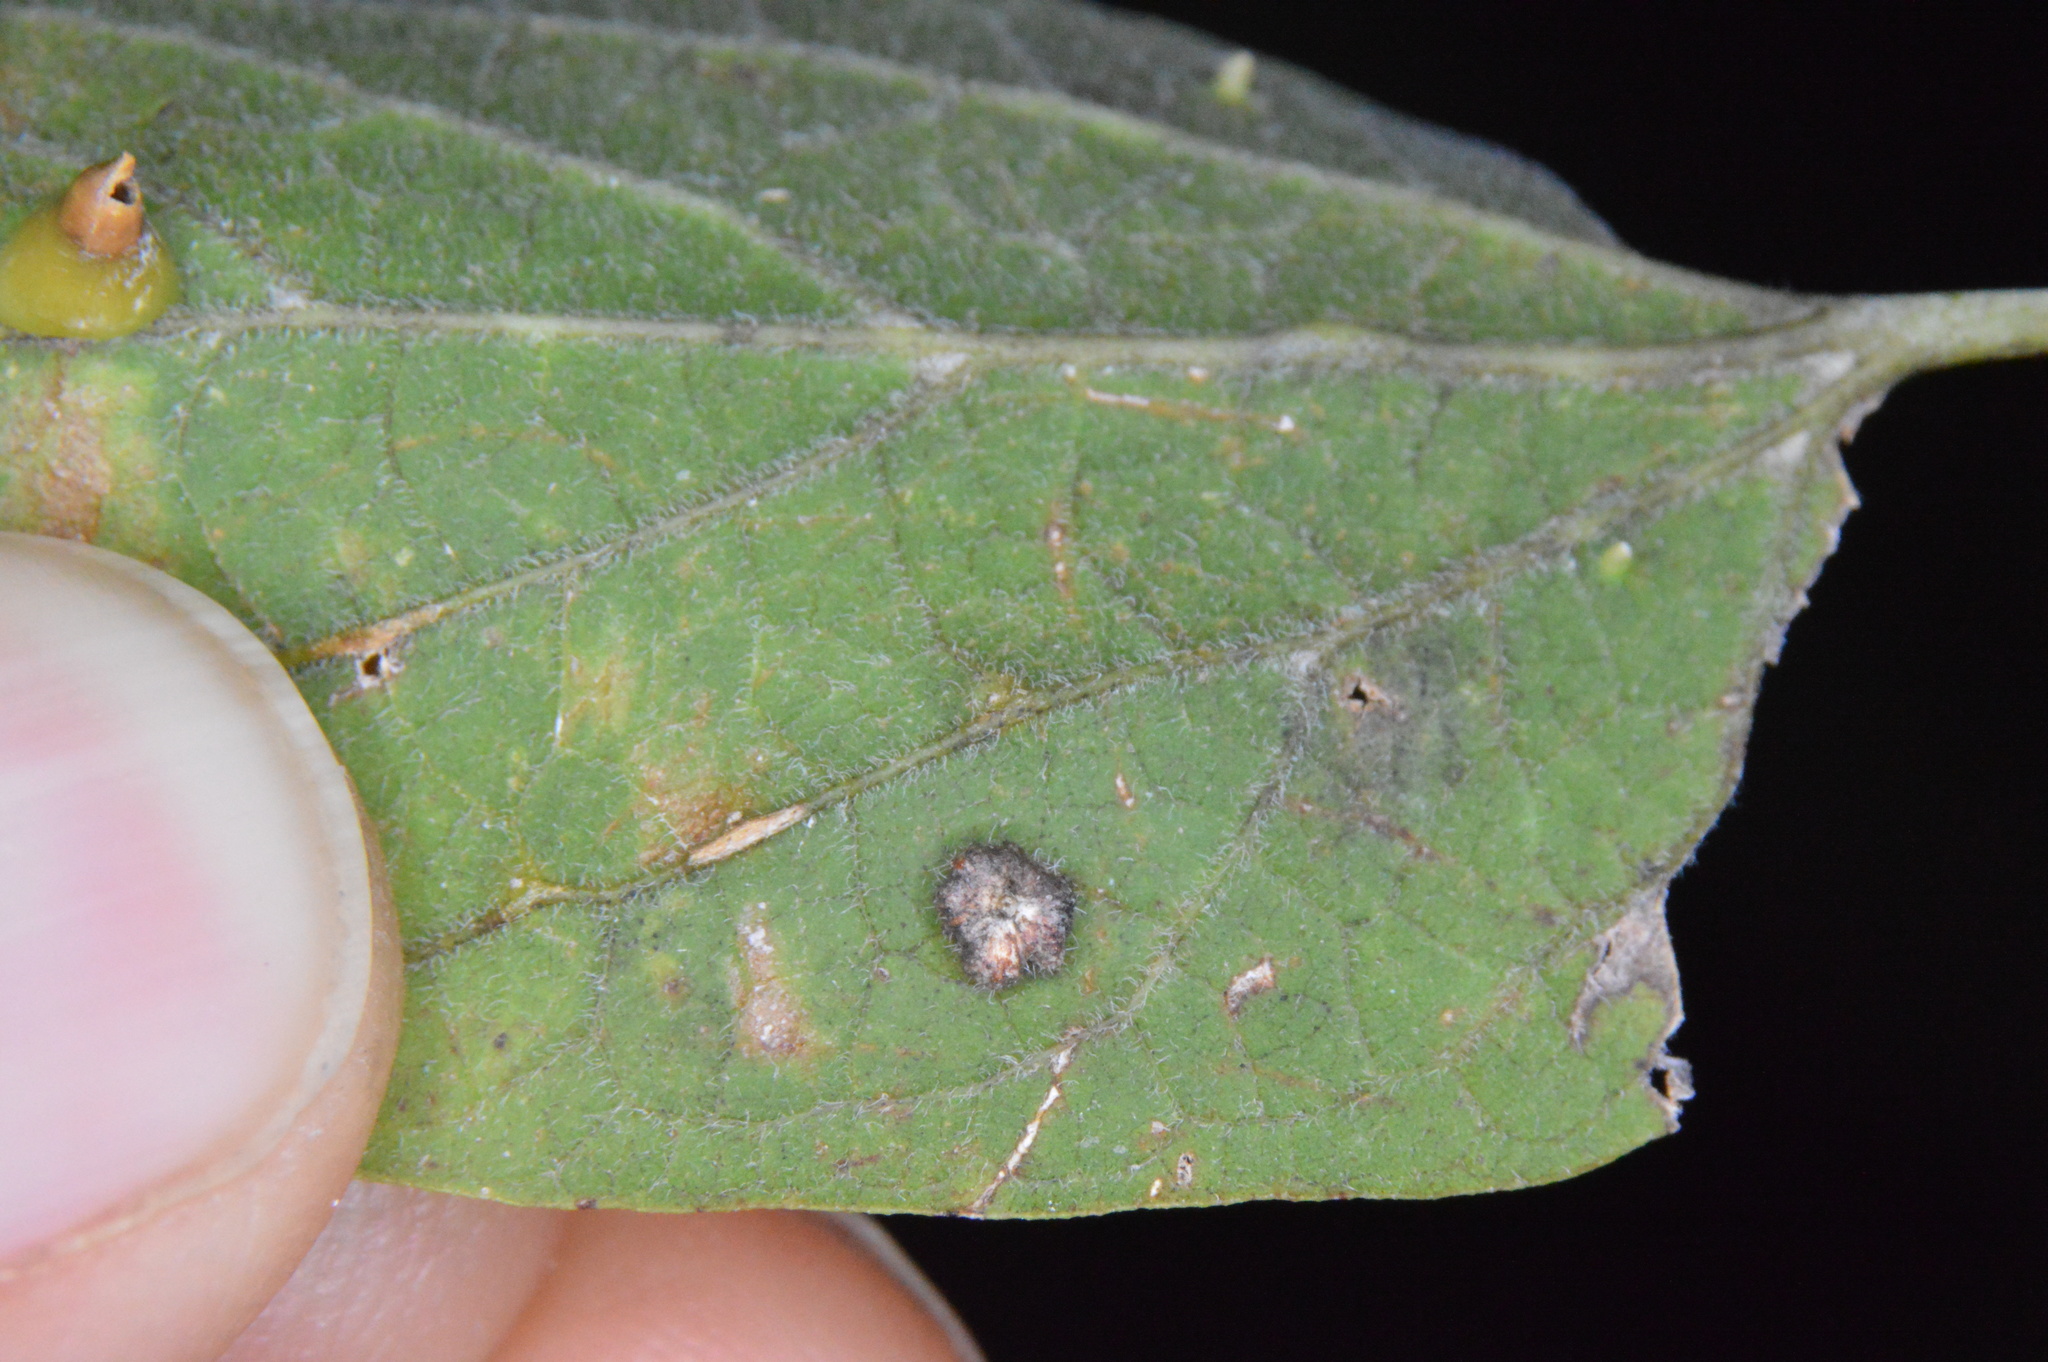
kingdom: Animalia
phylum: Arthropoda
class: Insecta
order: Diptera
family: Cecidomyiidae
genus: Celticecis
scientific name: Celticecis capsularis
